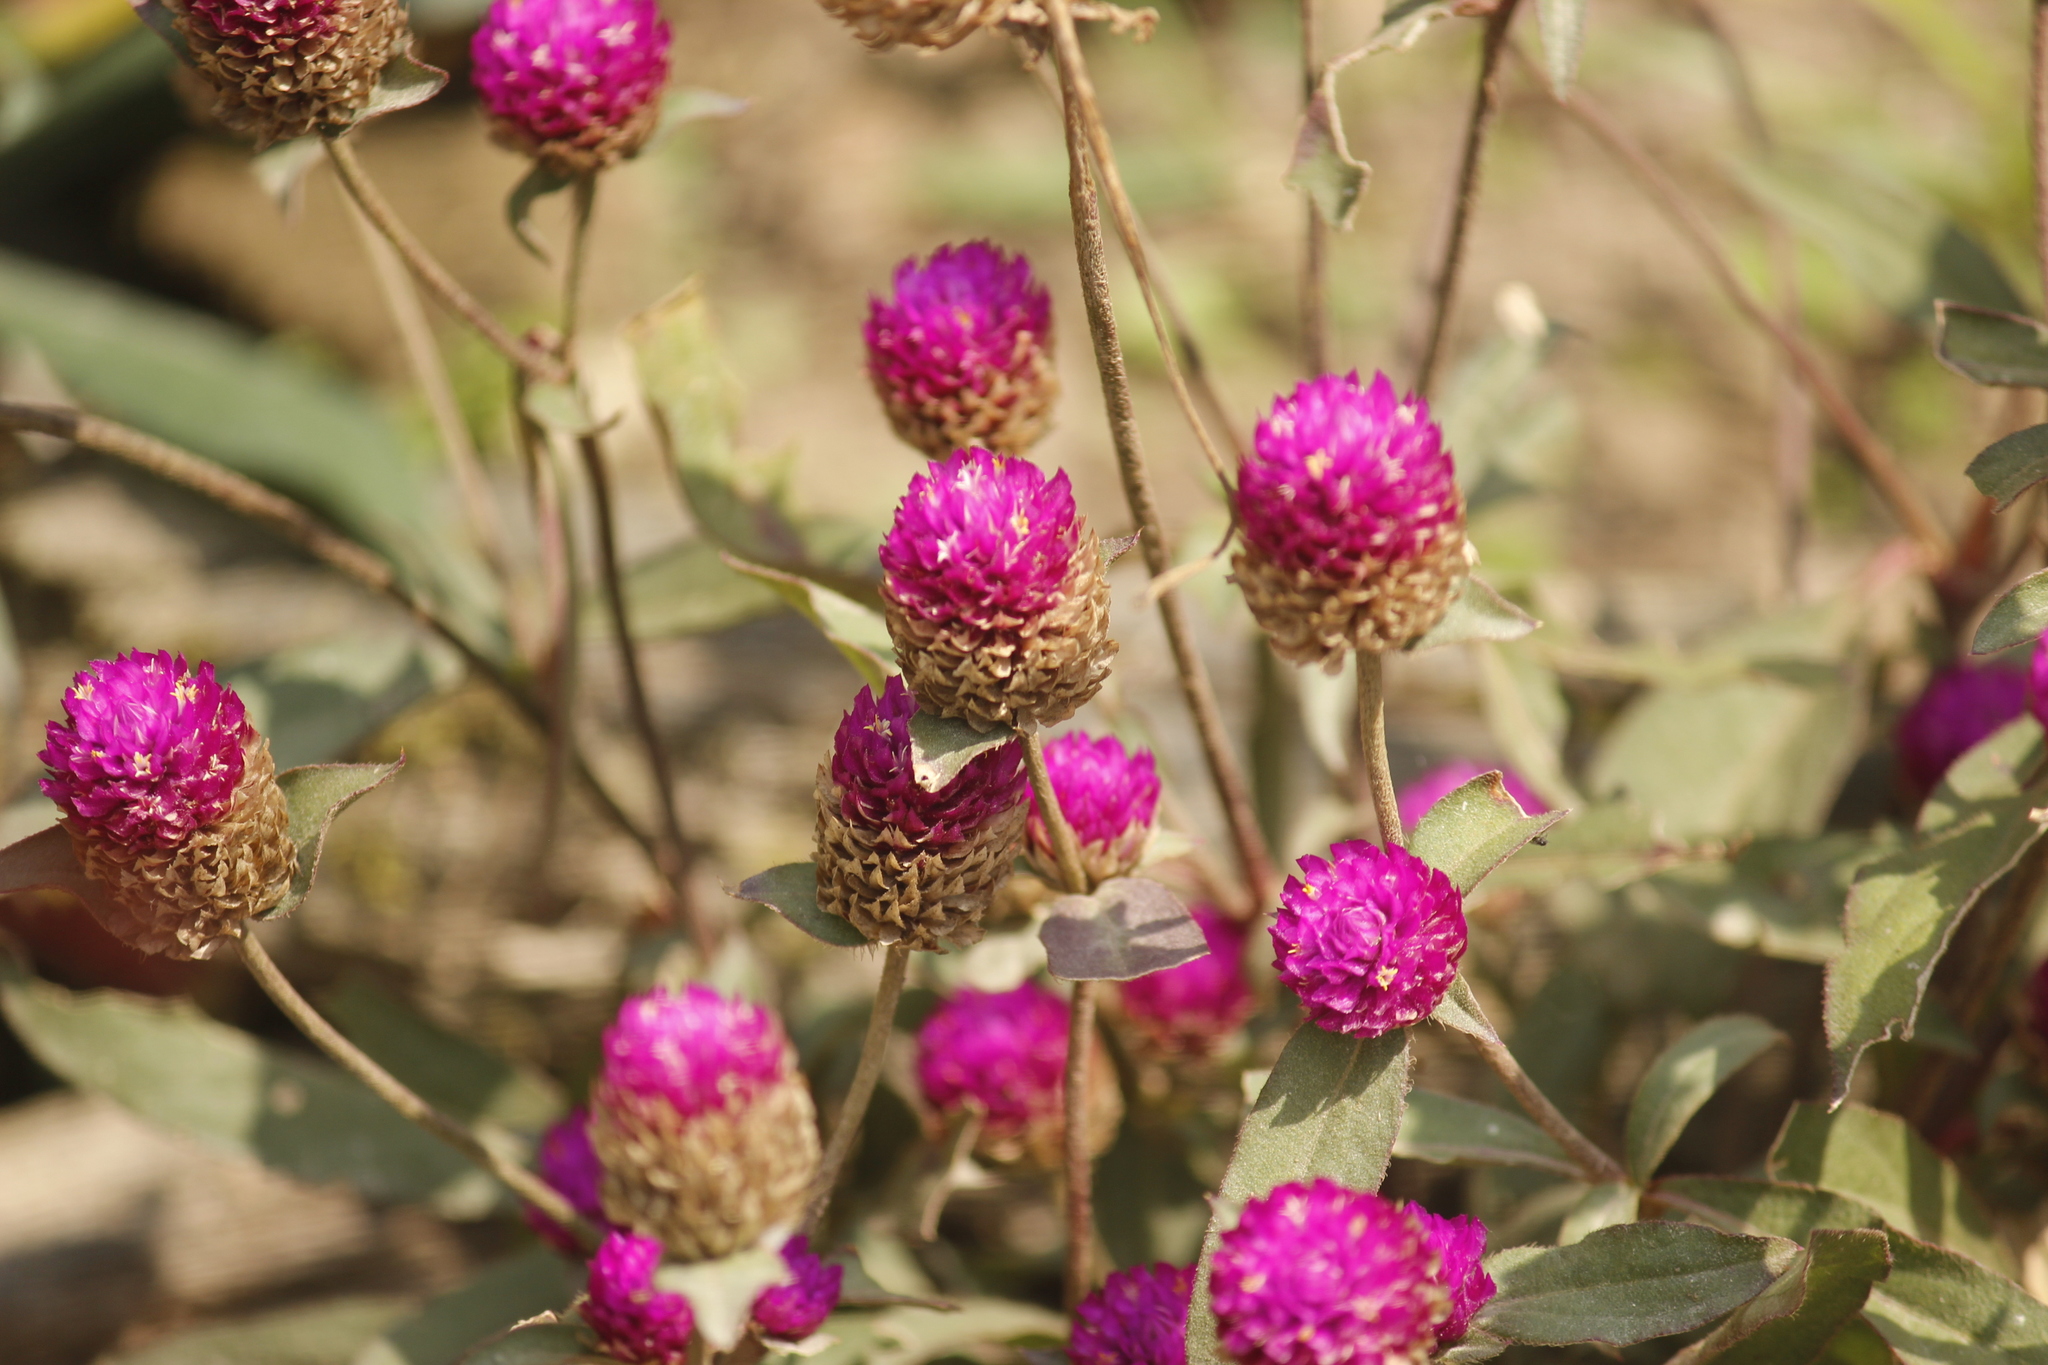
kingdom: Plantae
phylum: Tracheophyta
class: Magnoliopsida
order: Caryophyllales
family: Amaranthaceae
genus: Gomphrena
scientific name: Gomphrena globosa
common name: Common globe amaranth
